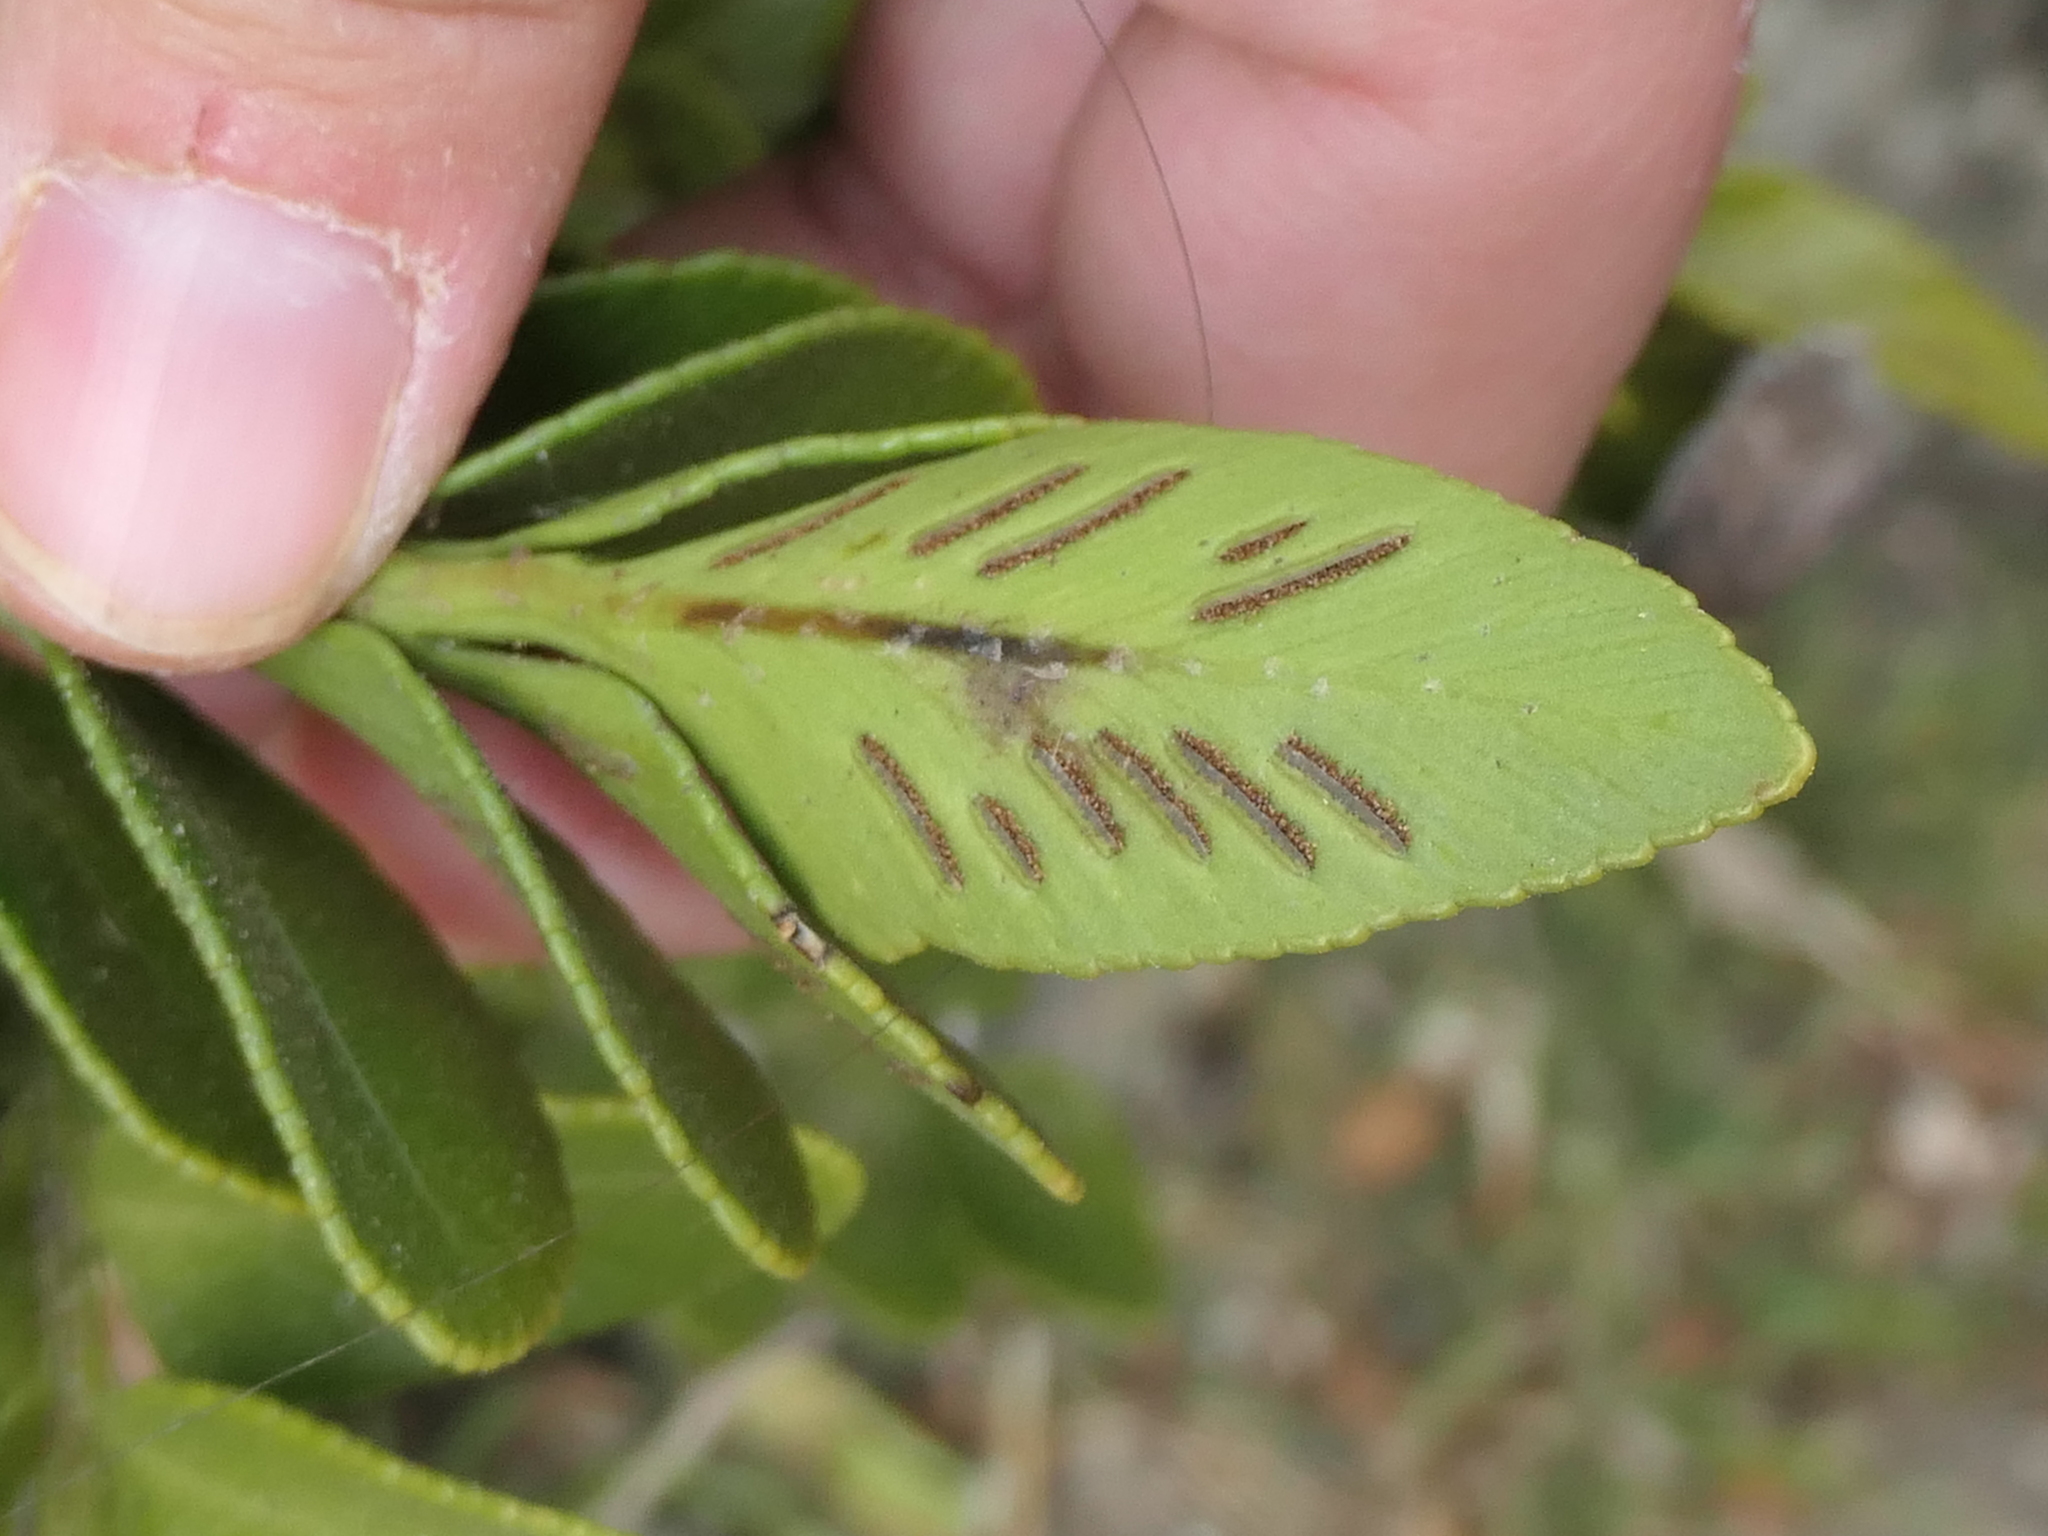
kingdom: Plantae
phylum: Tracheophyta
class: Polypodiopsida
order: Polypodiales
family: Aspleniaceae
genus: Asplenium
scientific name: Asplenium obtusatum
